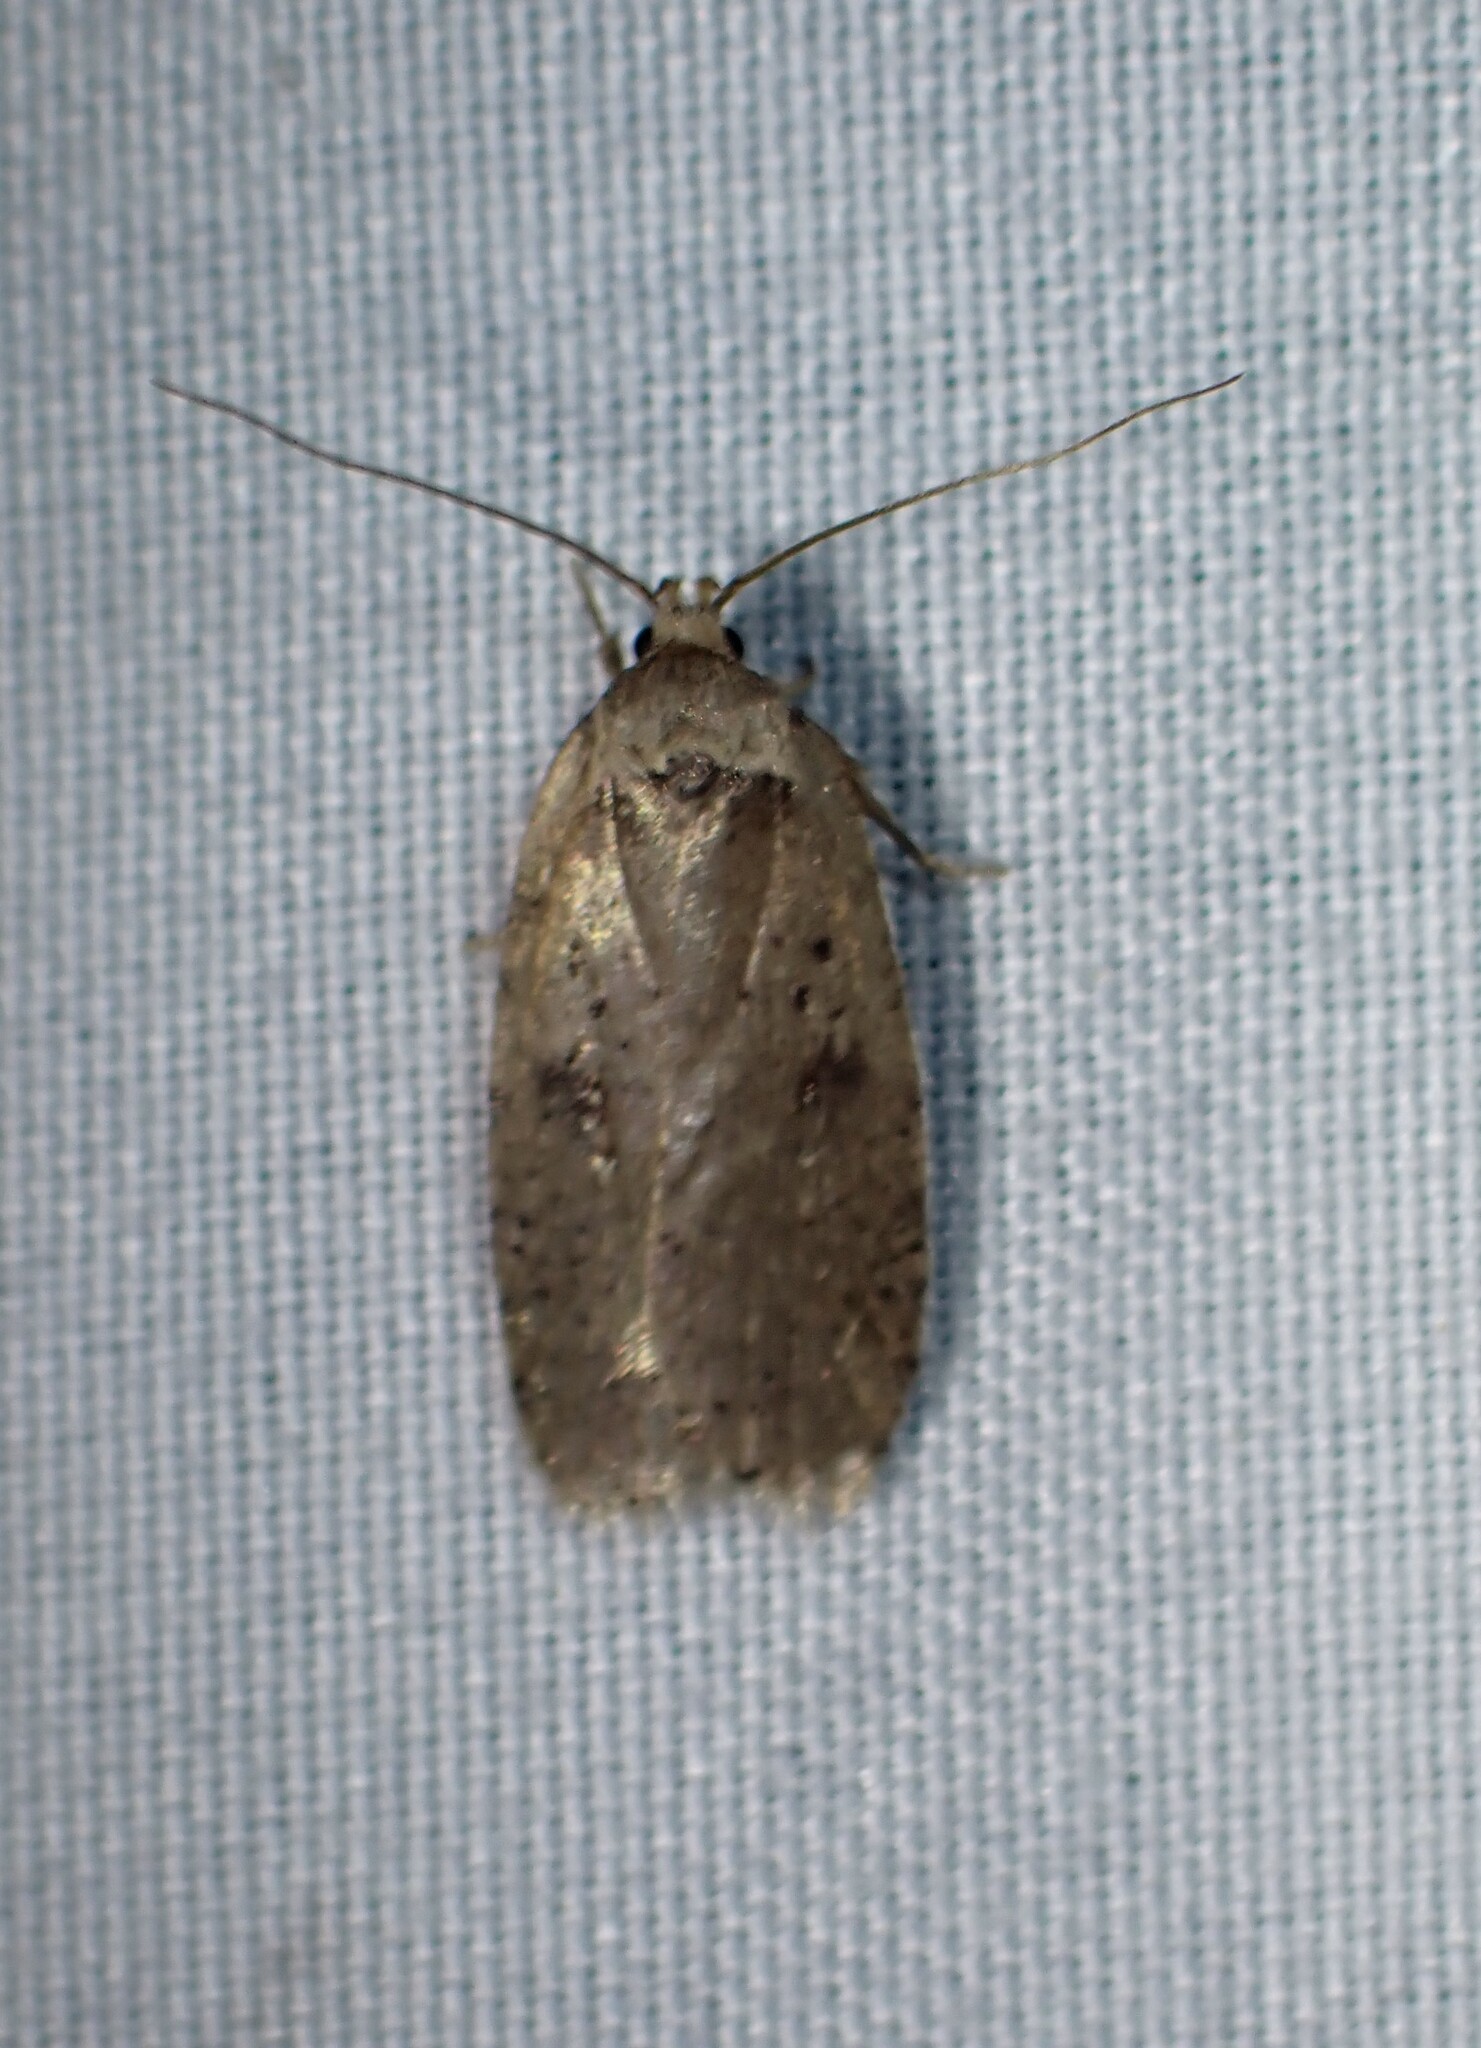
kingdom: Animalia
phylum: Arthropoda
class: Insecta
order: Lepidoptera
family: Depressariidae
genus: Agonopterix
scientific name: Agonopterix argillacea
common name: Clay-colored agonopterix moth
